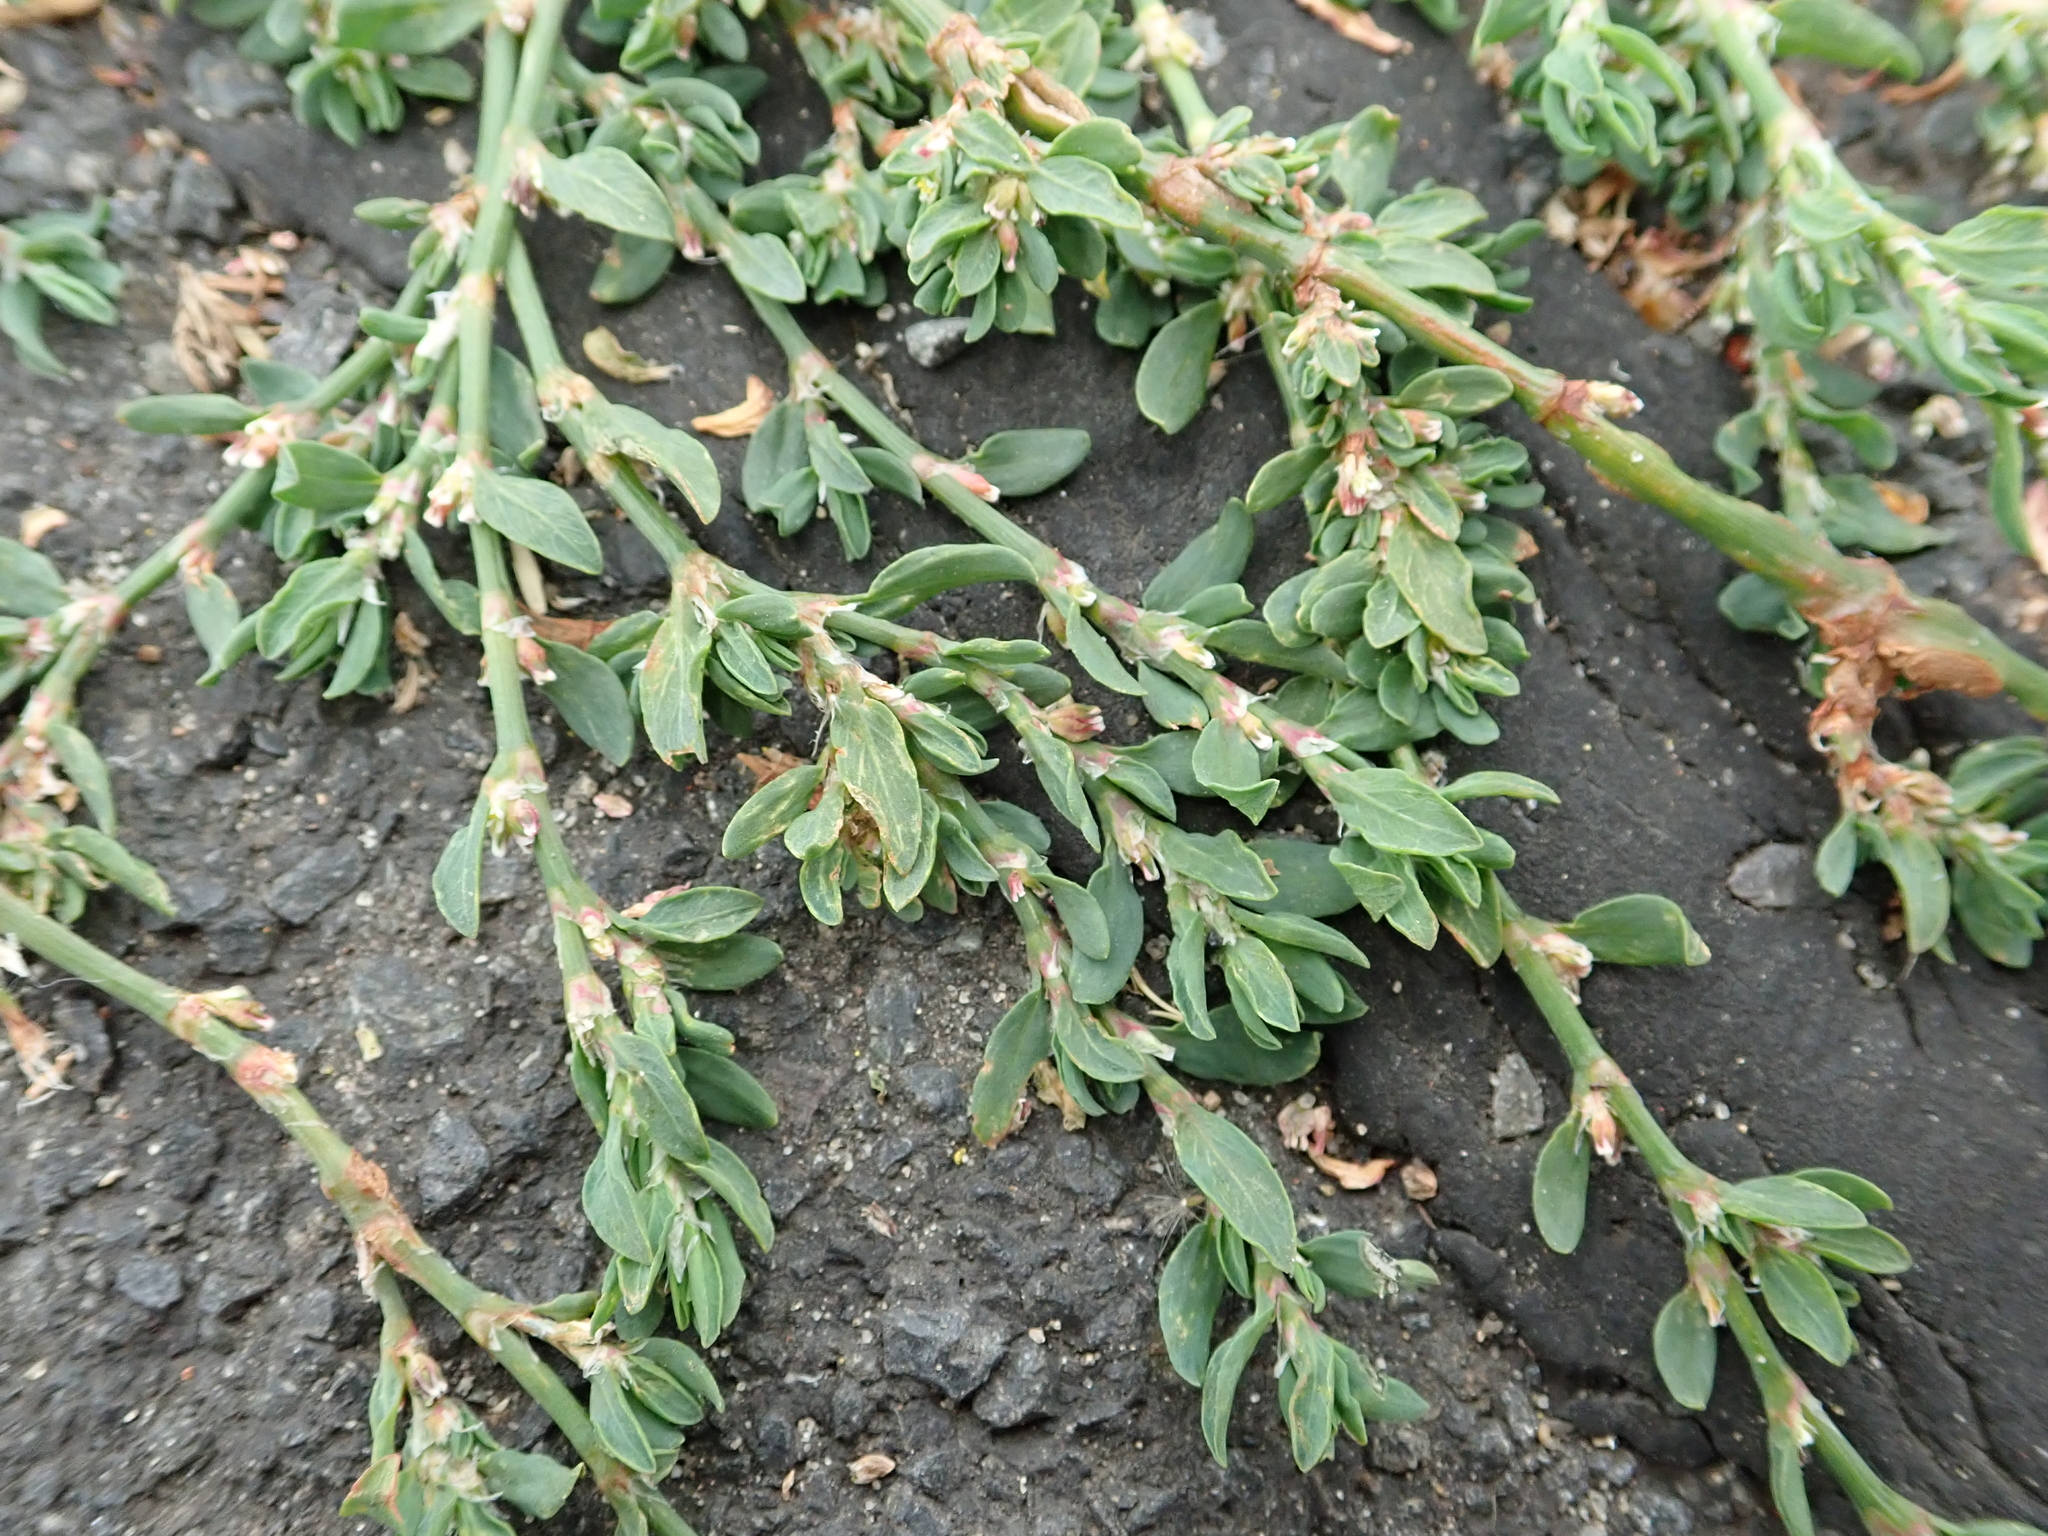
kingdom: Plantae
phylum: Tracheophyta
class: Magnoliopsida
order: Caryophyllales
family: Polygonaceae
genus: Polygonum
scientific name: Polygonum aviculare
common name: Prostrate knotweed
